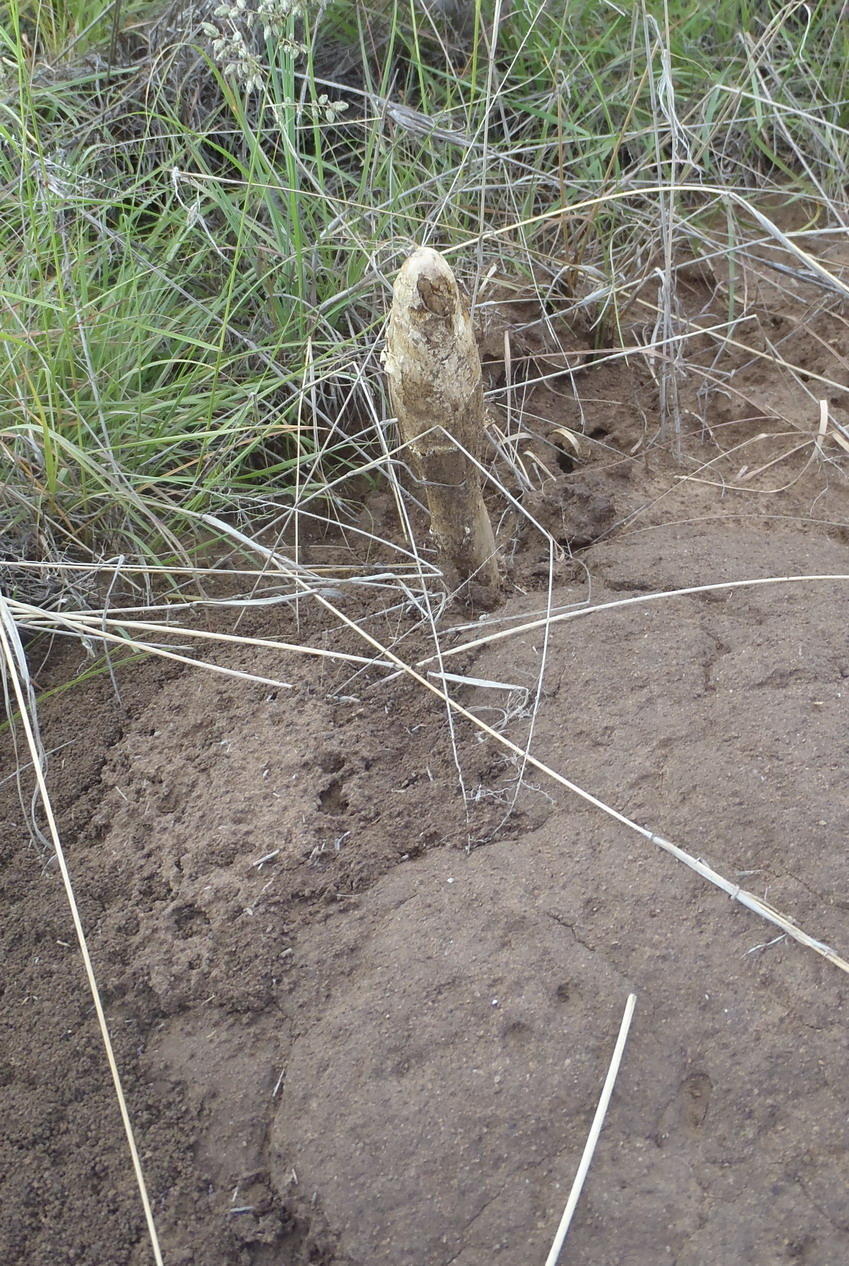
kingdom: Fungi
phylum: Basidiomycota
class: Agaricomycetes
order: Agaricales
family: Agaricaceae
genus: Podaxis
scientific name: Podaxis pistillaris
